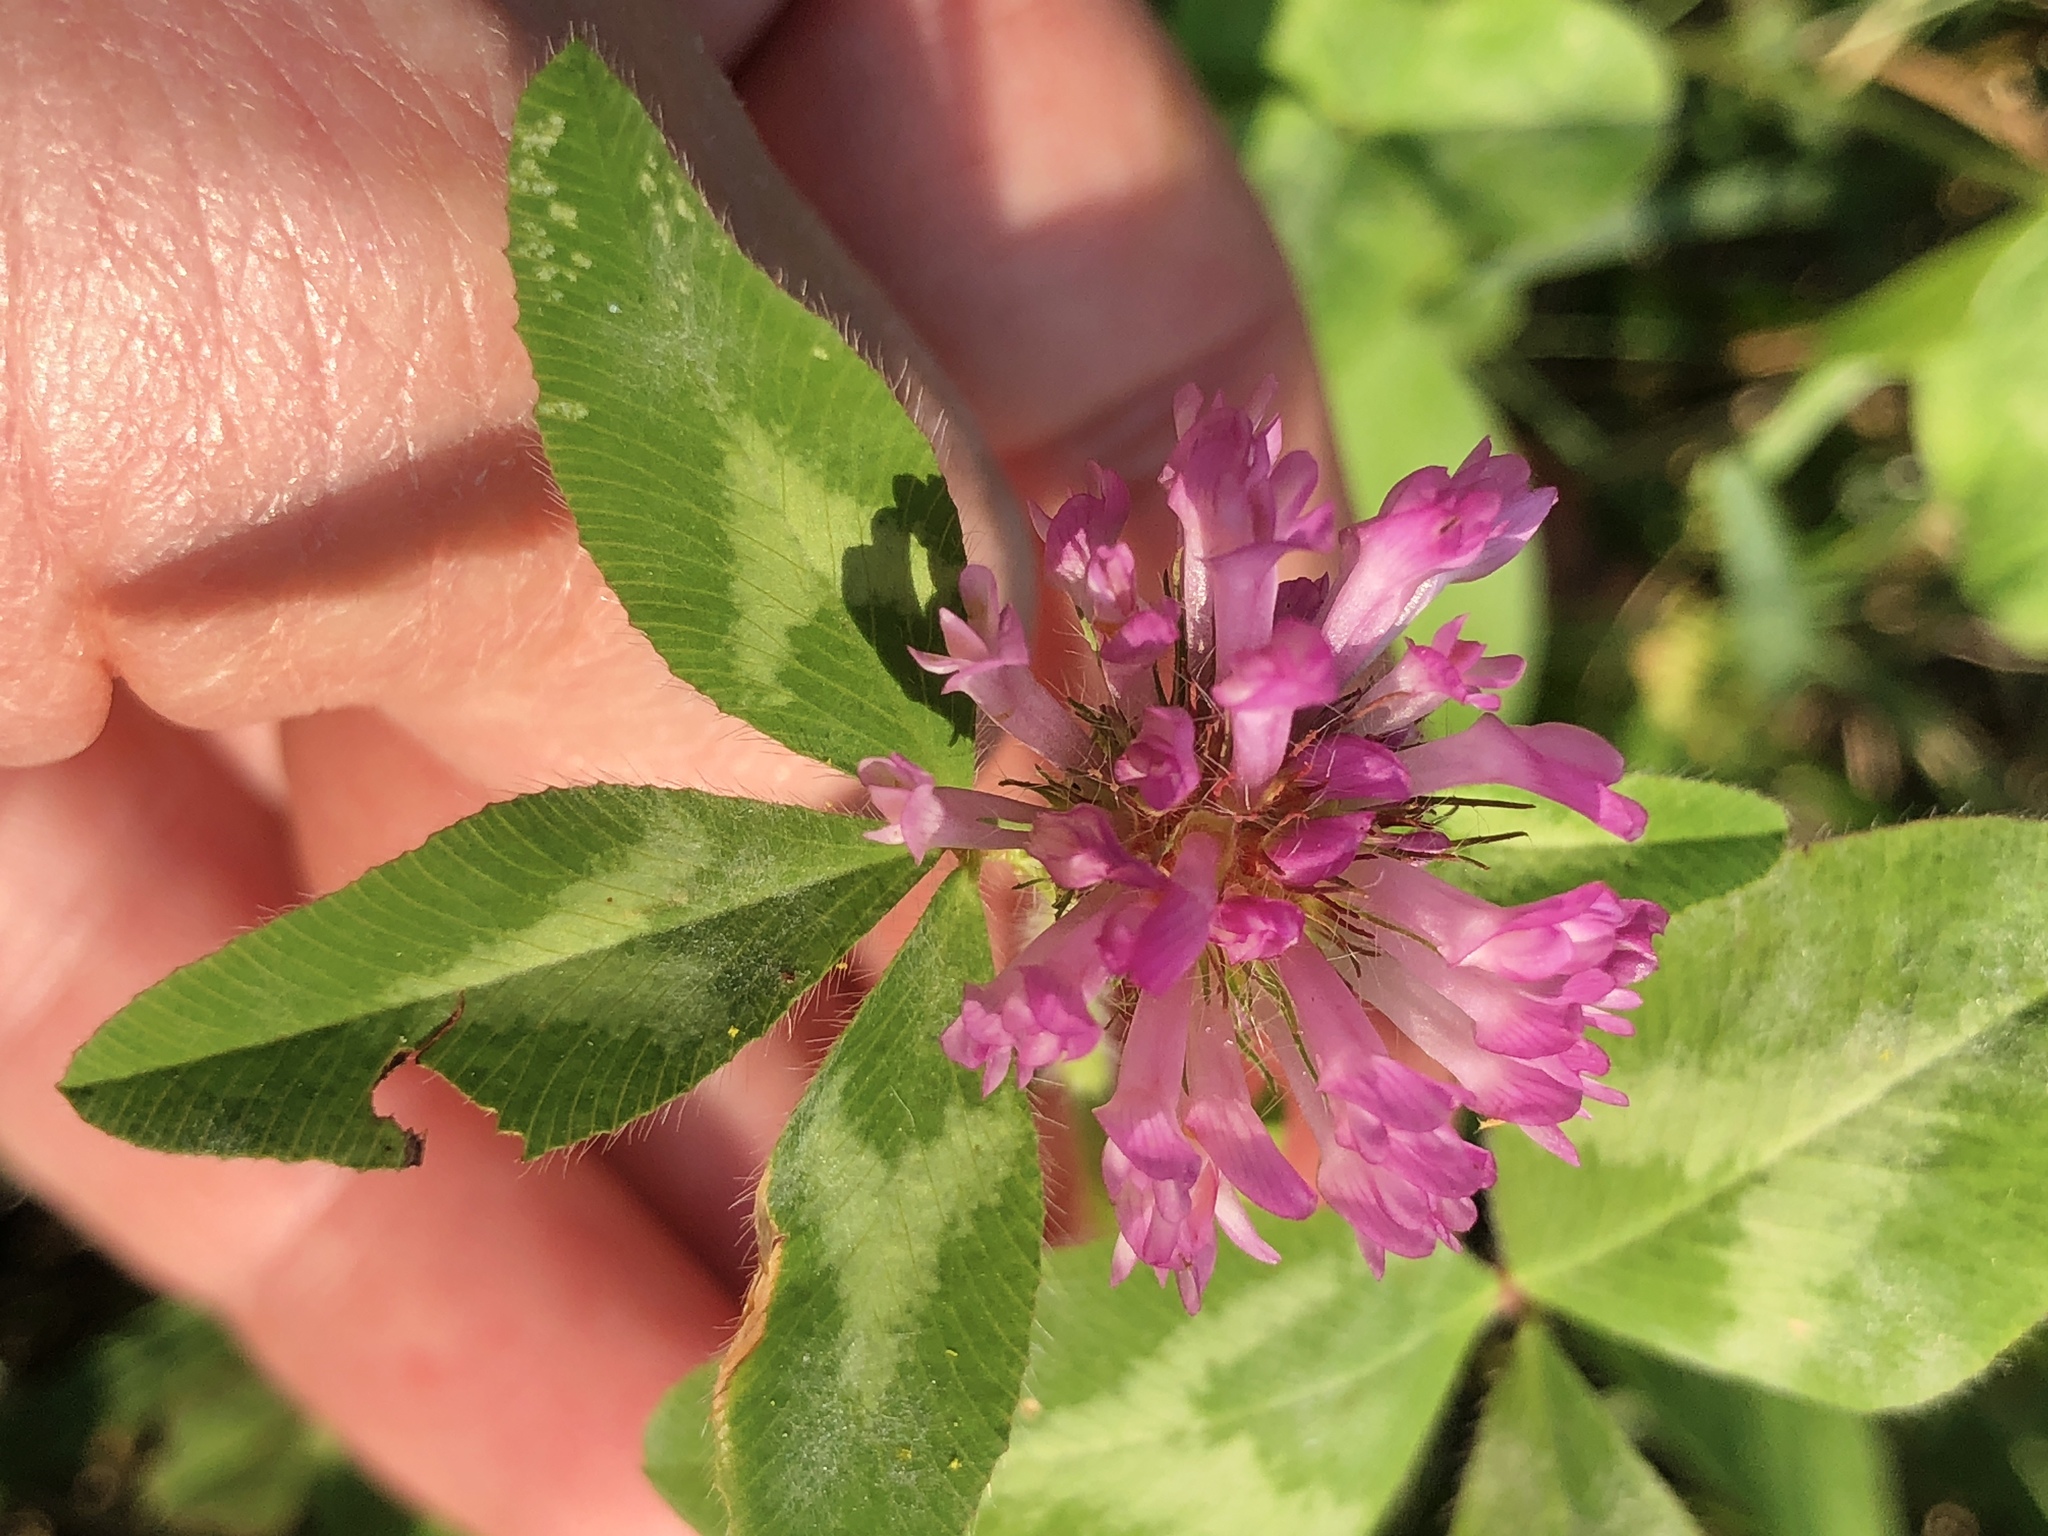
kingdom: Plantae
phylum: Tracheophyta
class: Magnoliopsida
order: Fabales
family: Fabaceae
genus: Trifolium
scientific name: Trifolium pratense
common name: Red clover
